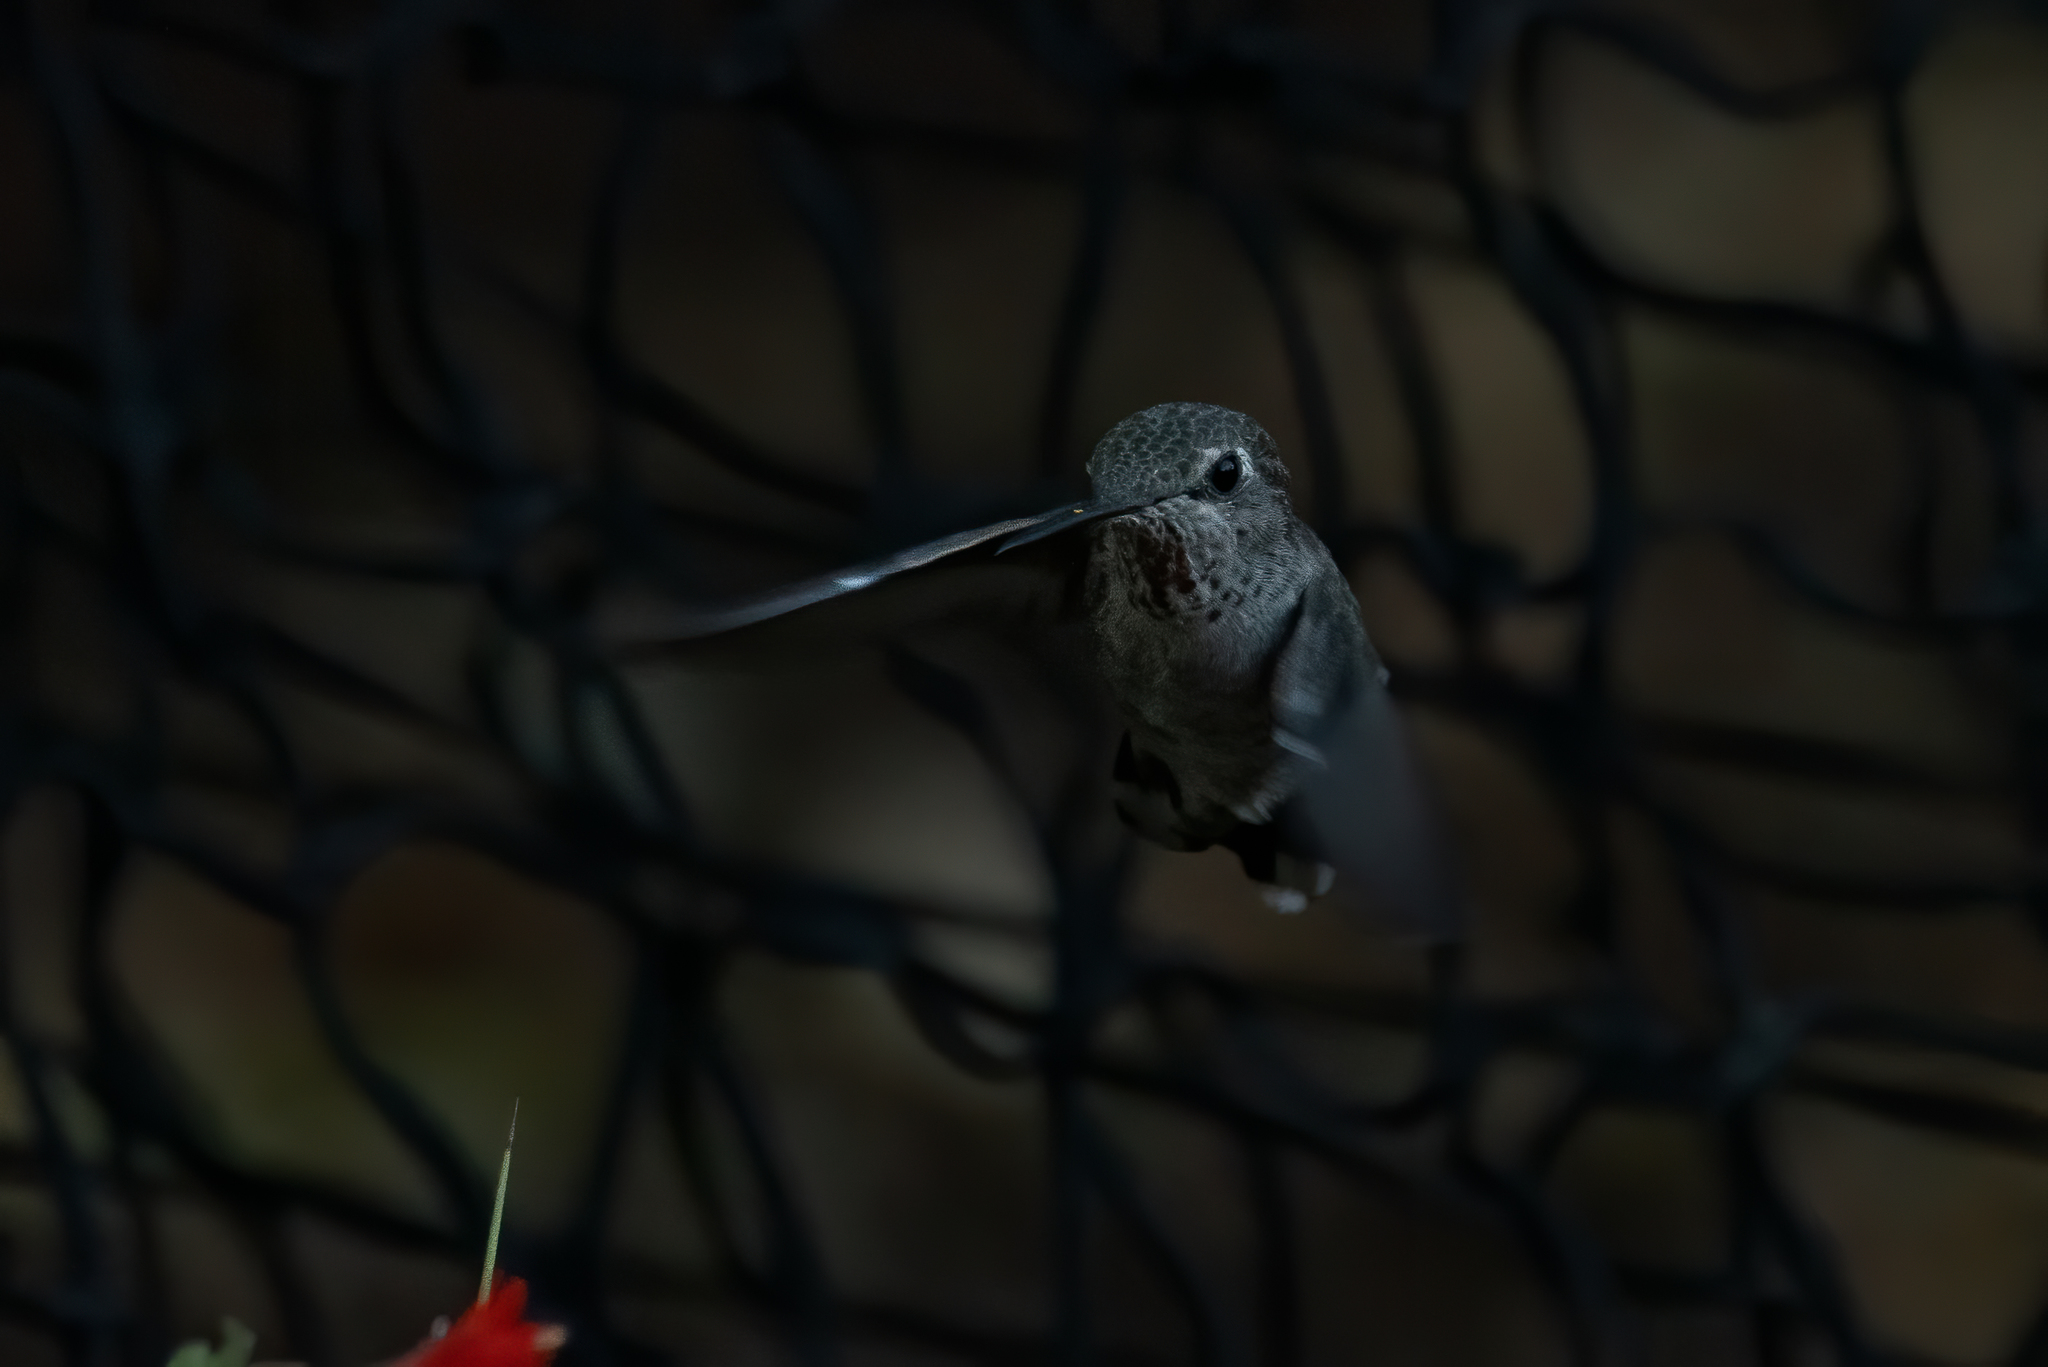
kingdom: Animalia
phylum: Chordata
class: Aves
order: Apodiformes
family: Trochilidae
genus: Calypte
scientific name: Calypte anna
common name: Anna's hummingbird
